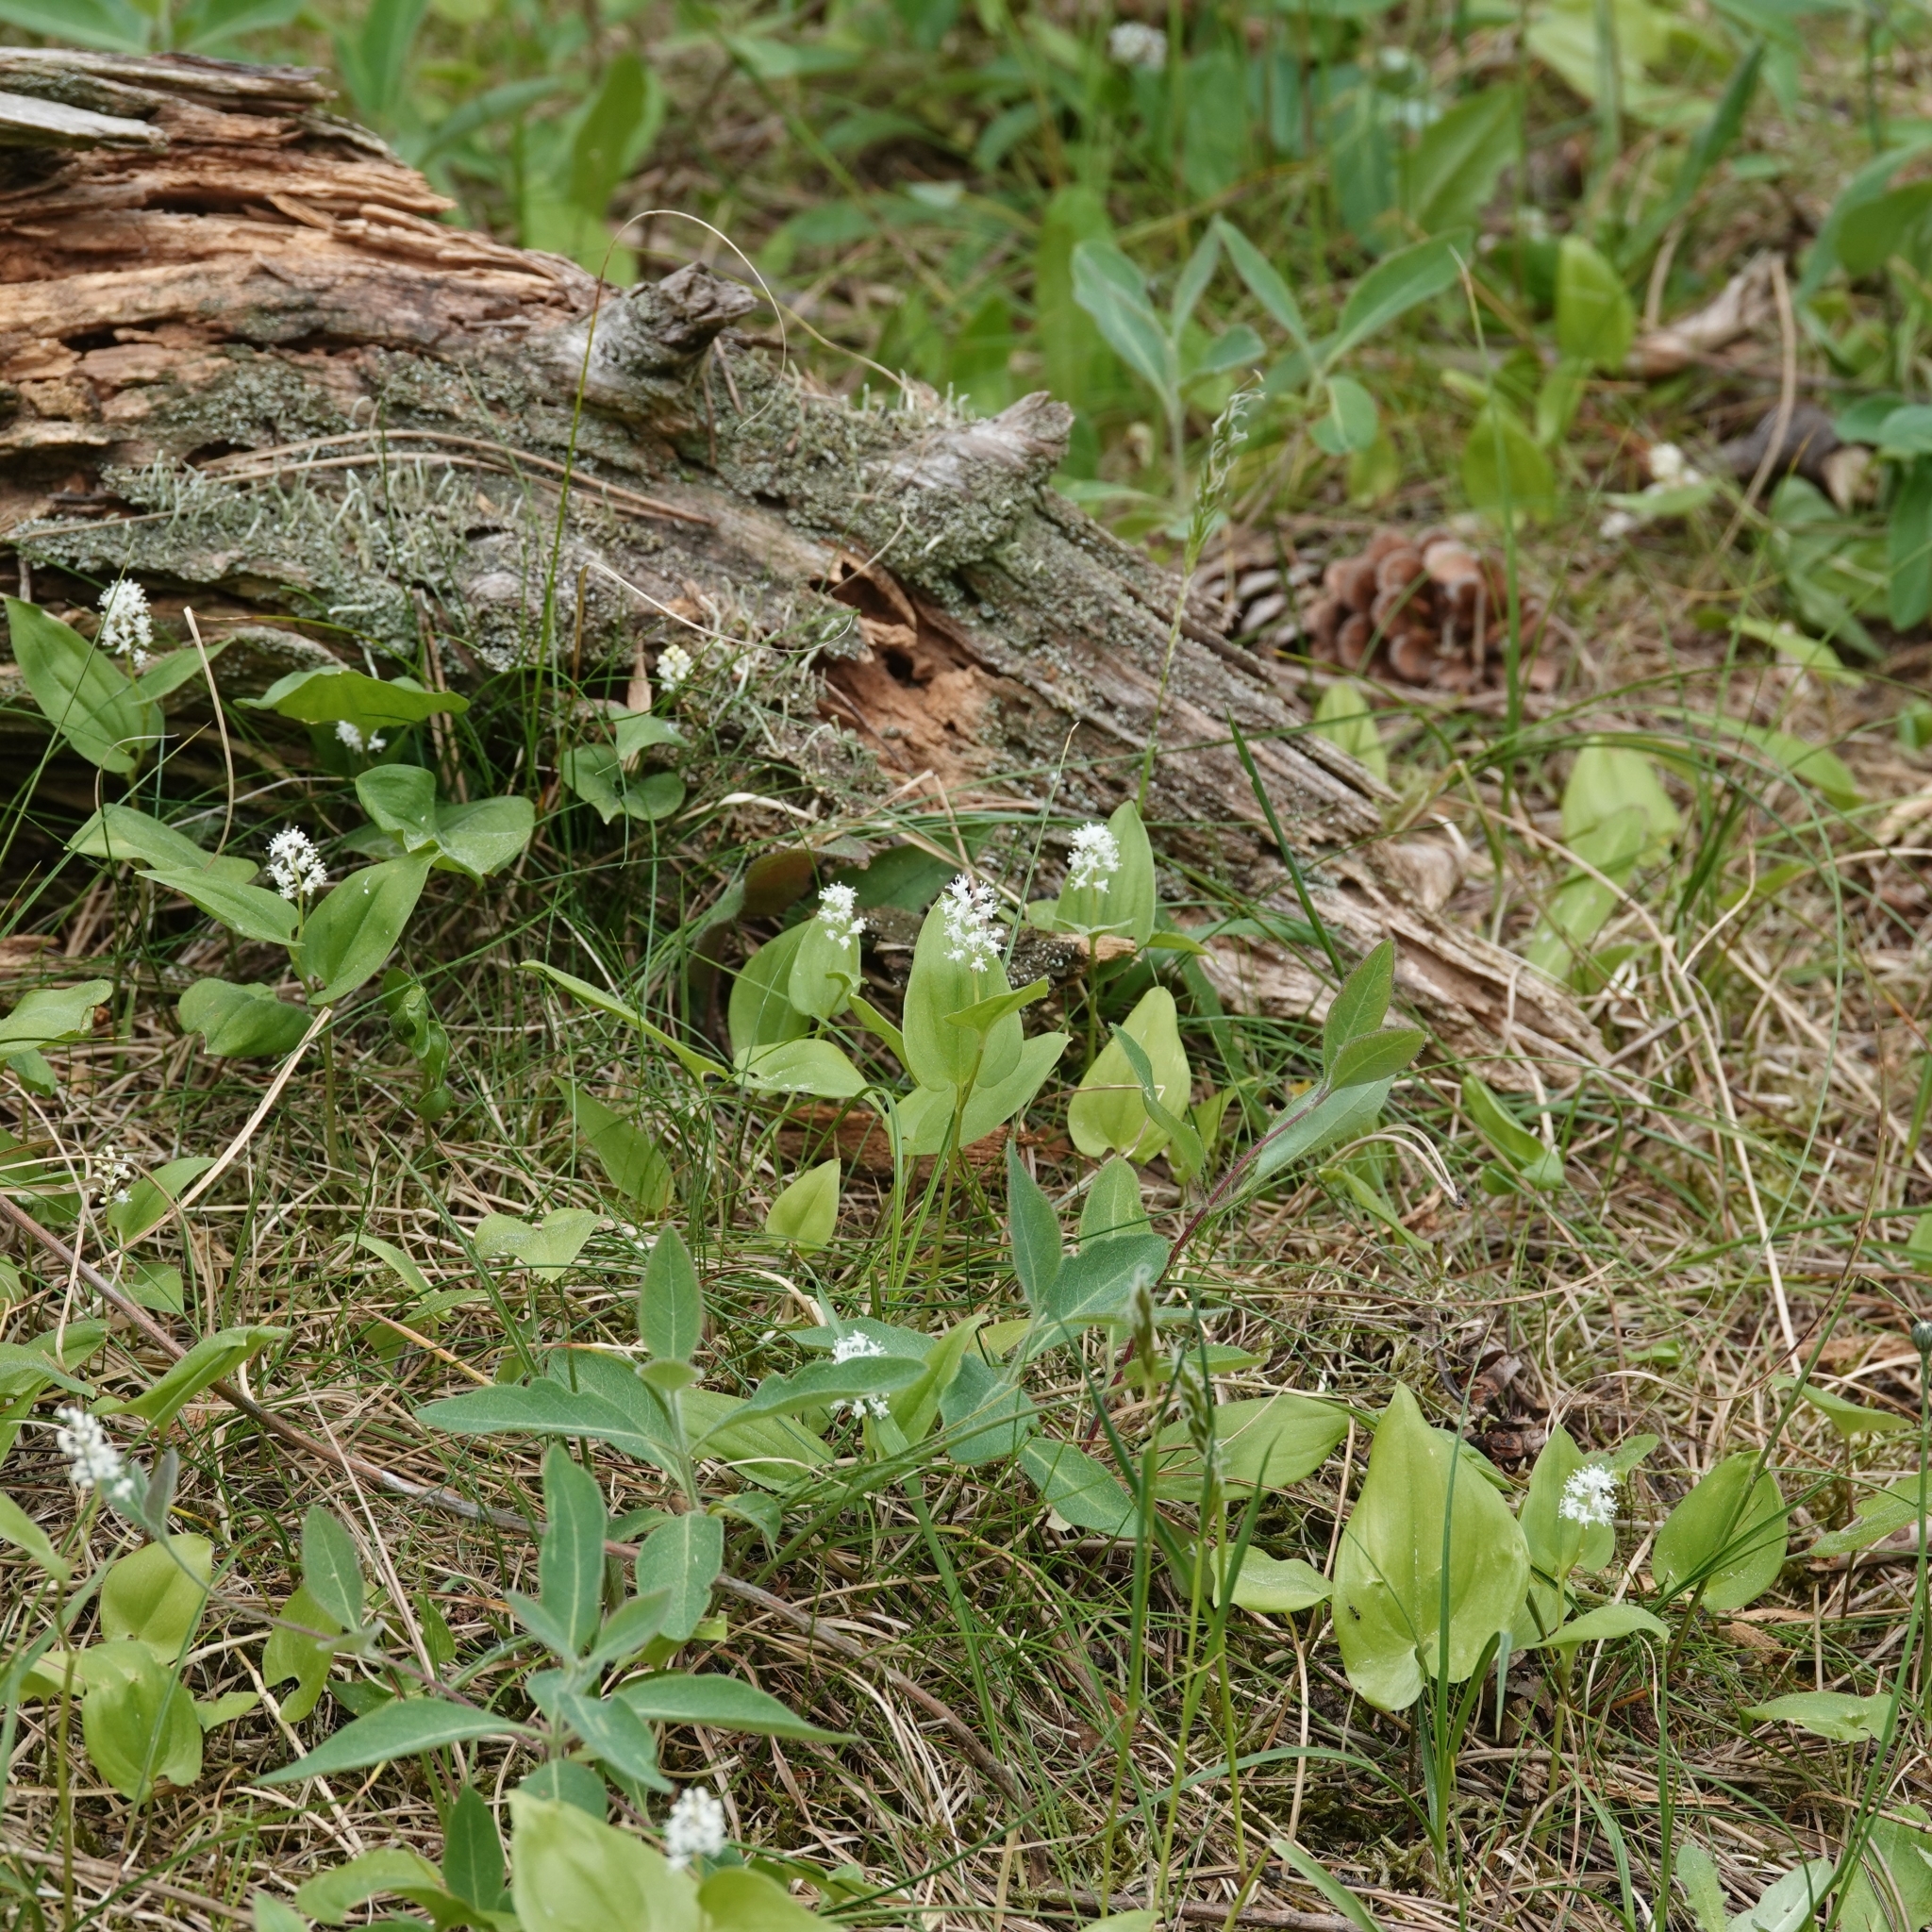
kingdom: Plantae
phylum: Tracheophyta
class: Liliopsida
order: Asparagales
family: Asparagaceae
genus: Maianthemum
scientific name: Maianthemum bifolium
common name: May lily
